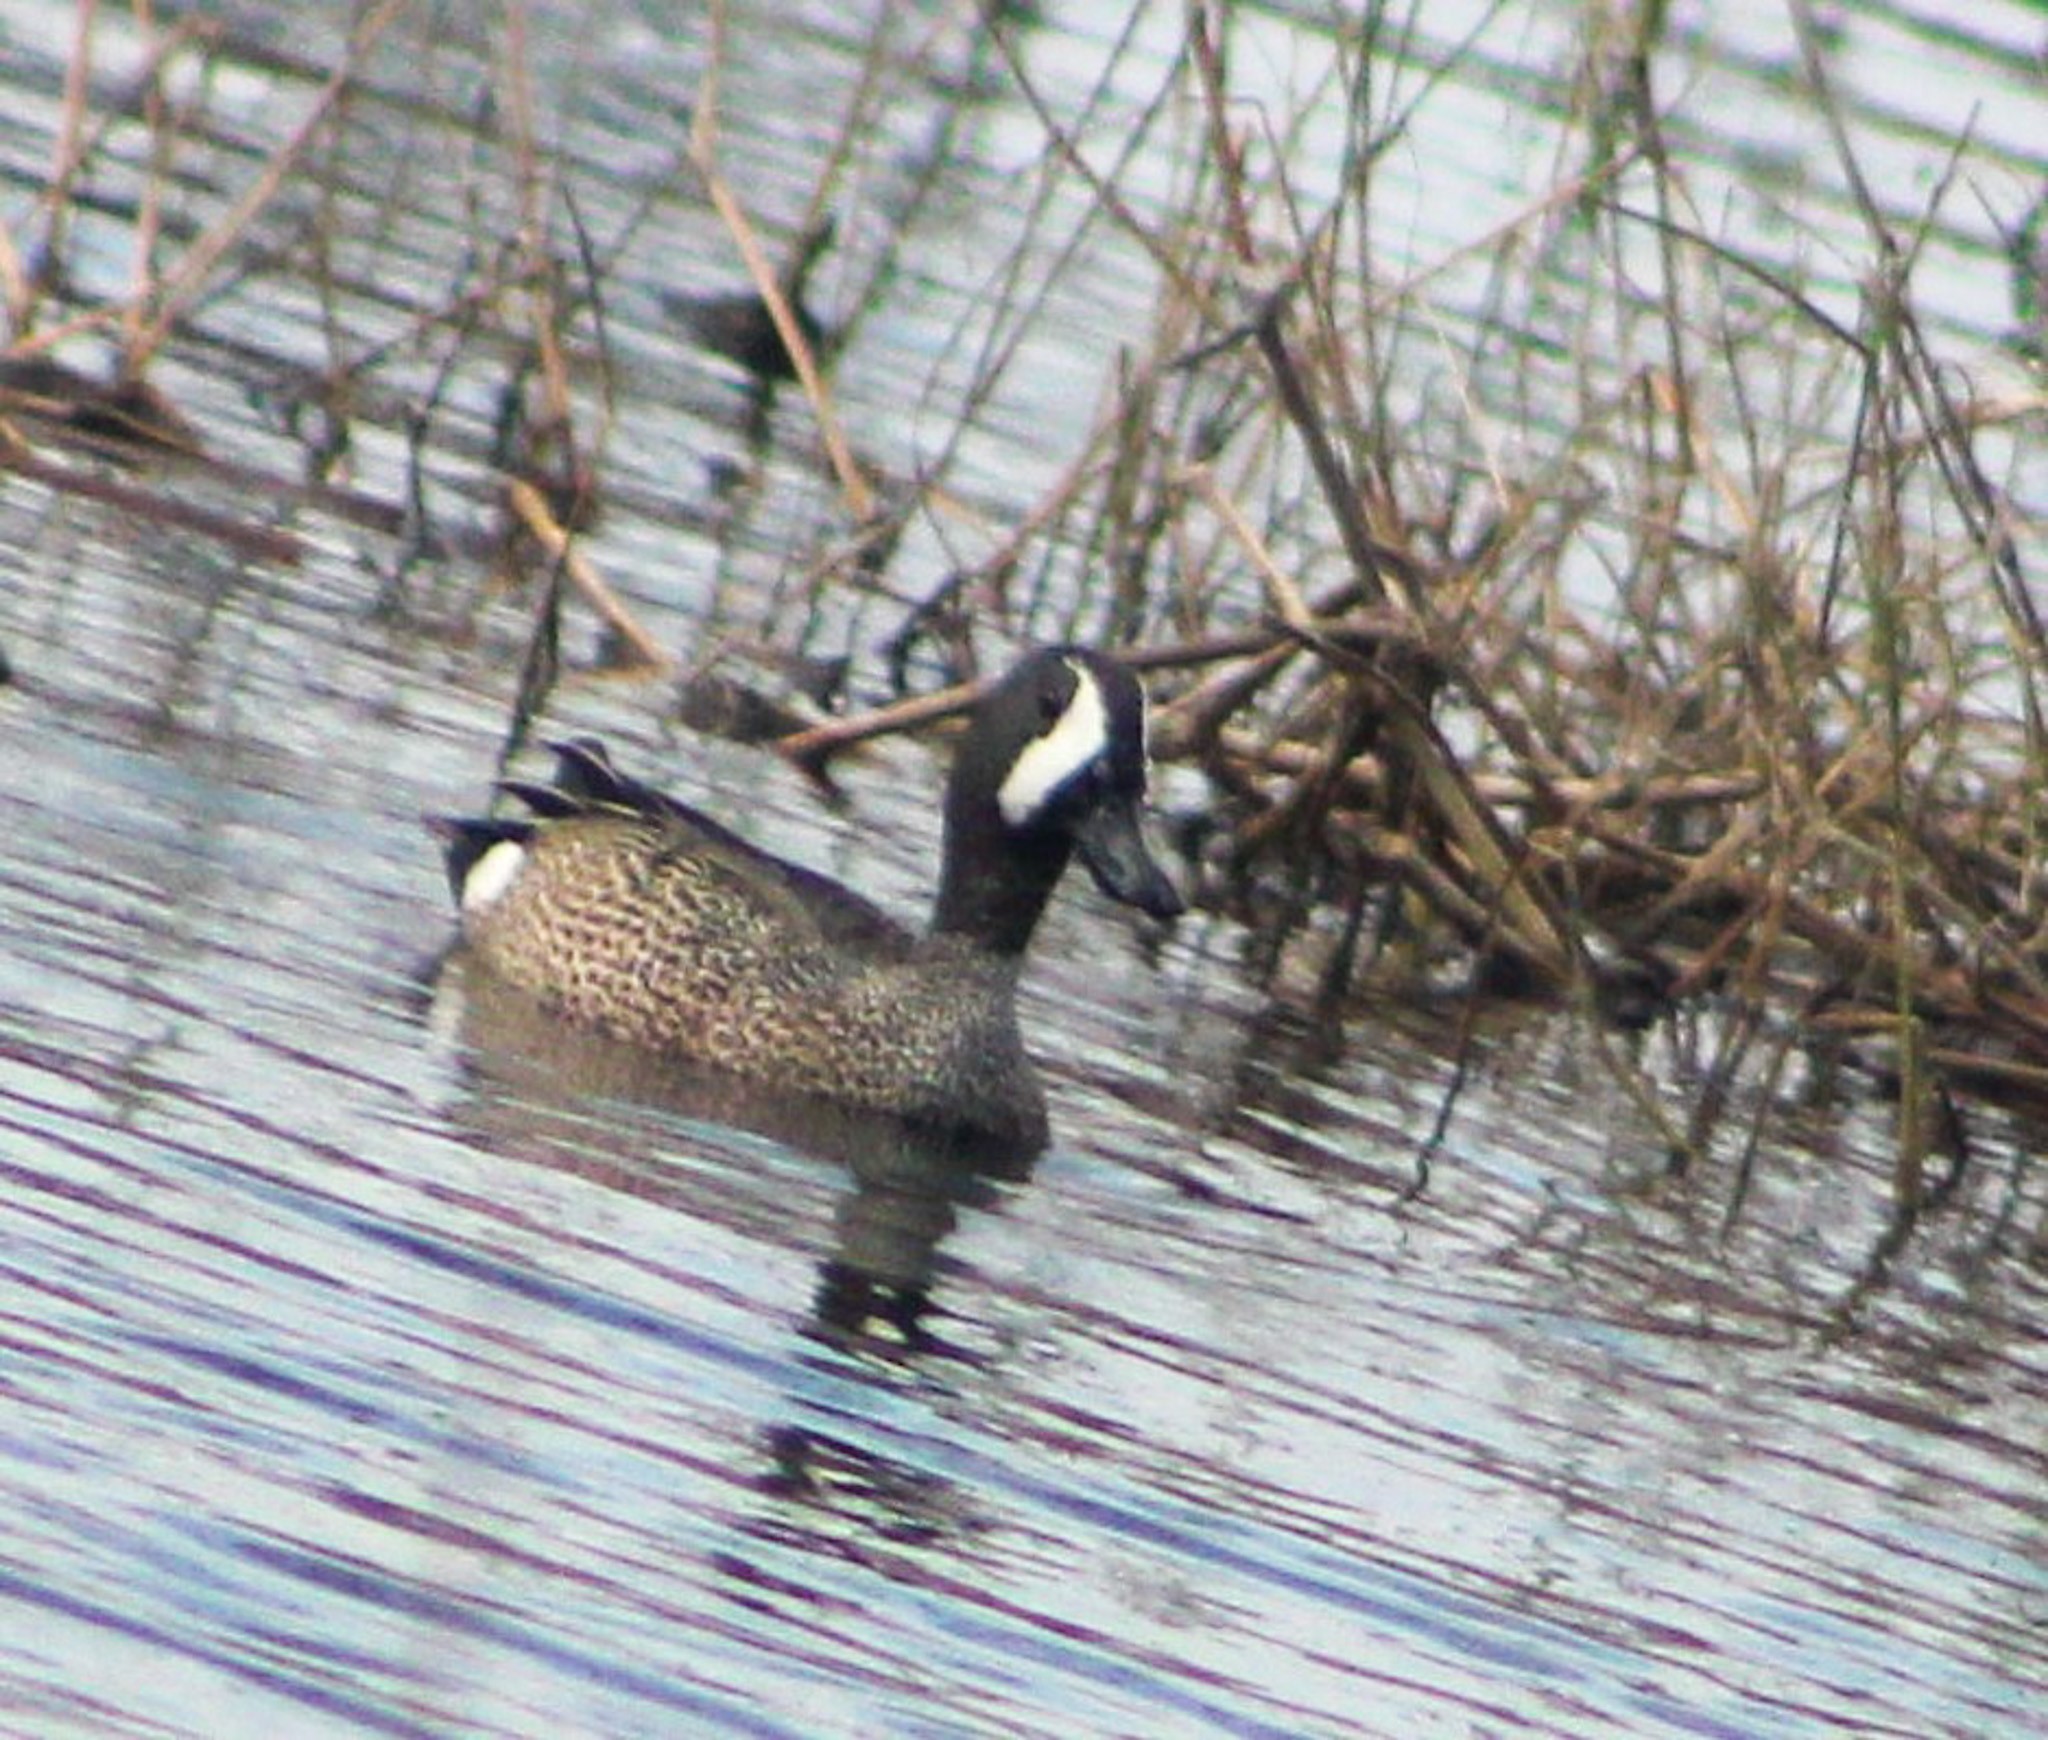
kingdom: Animalia
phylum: Chordata
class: Aves
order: Anseriformes
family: Anatidae
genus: Spatula
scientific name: Spatula discors
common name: Blue-winged teal
